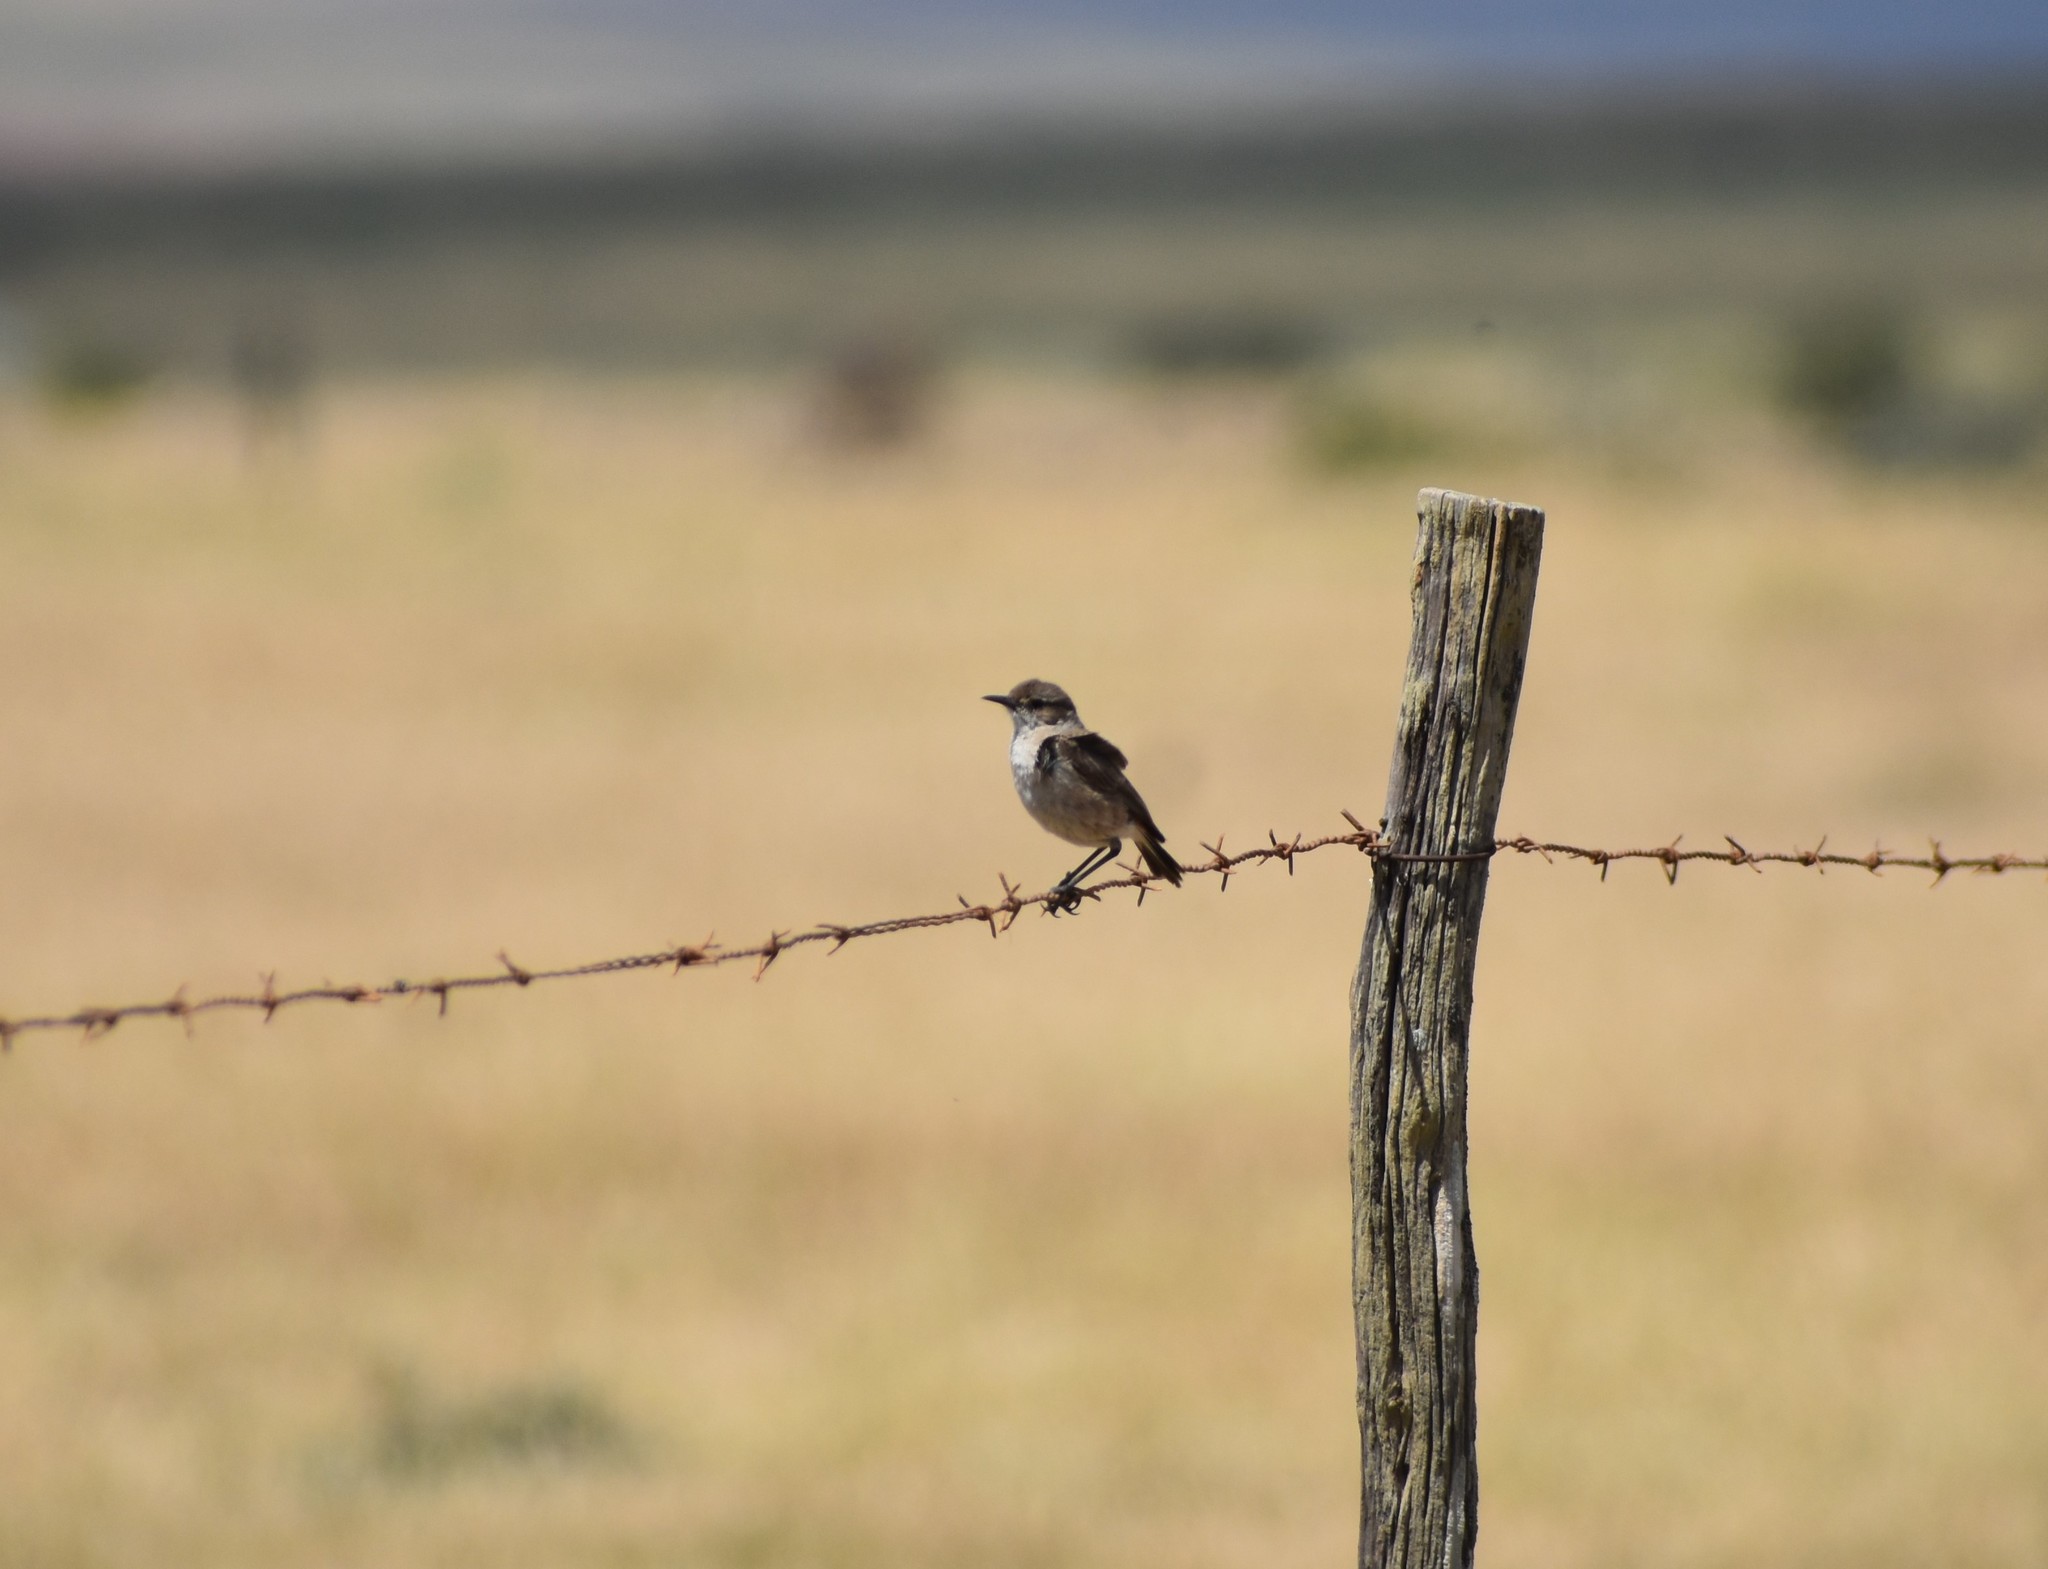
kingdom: Animalia
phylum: Chordata
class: Aves
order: Passeriformes
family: Muscicapidae
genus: Emarginata
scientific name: Emarginata sinuata
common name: Sickle-winged chat
